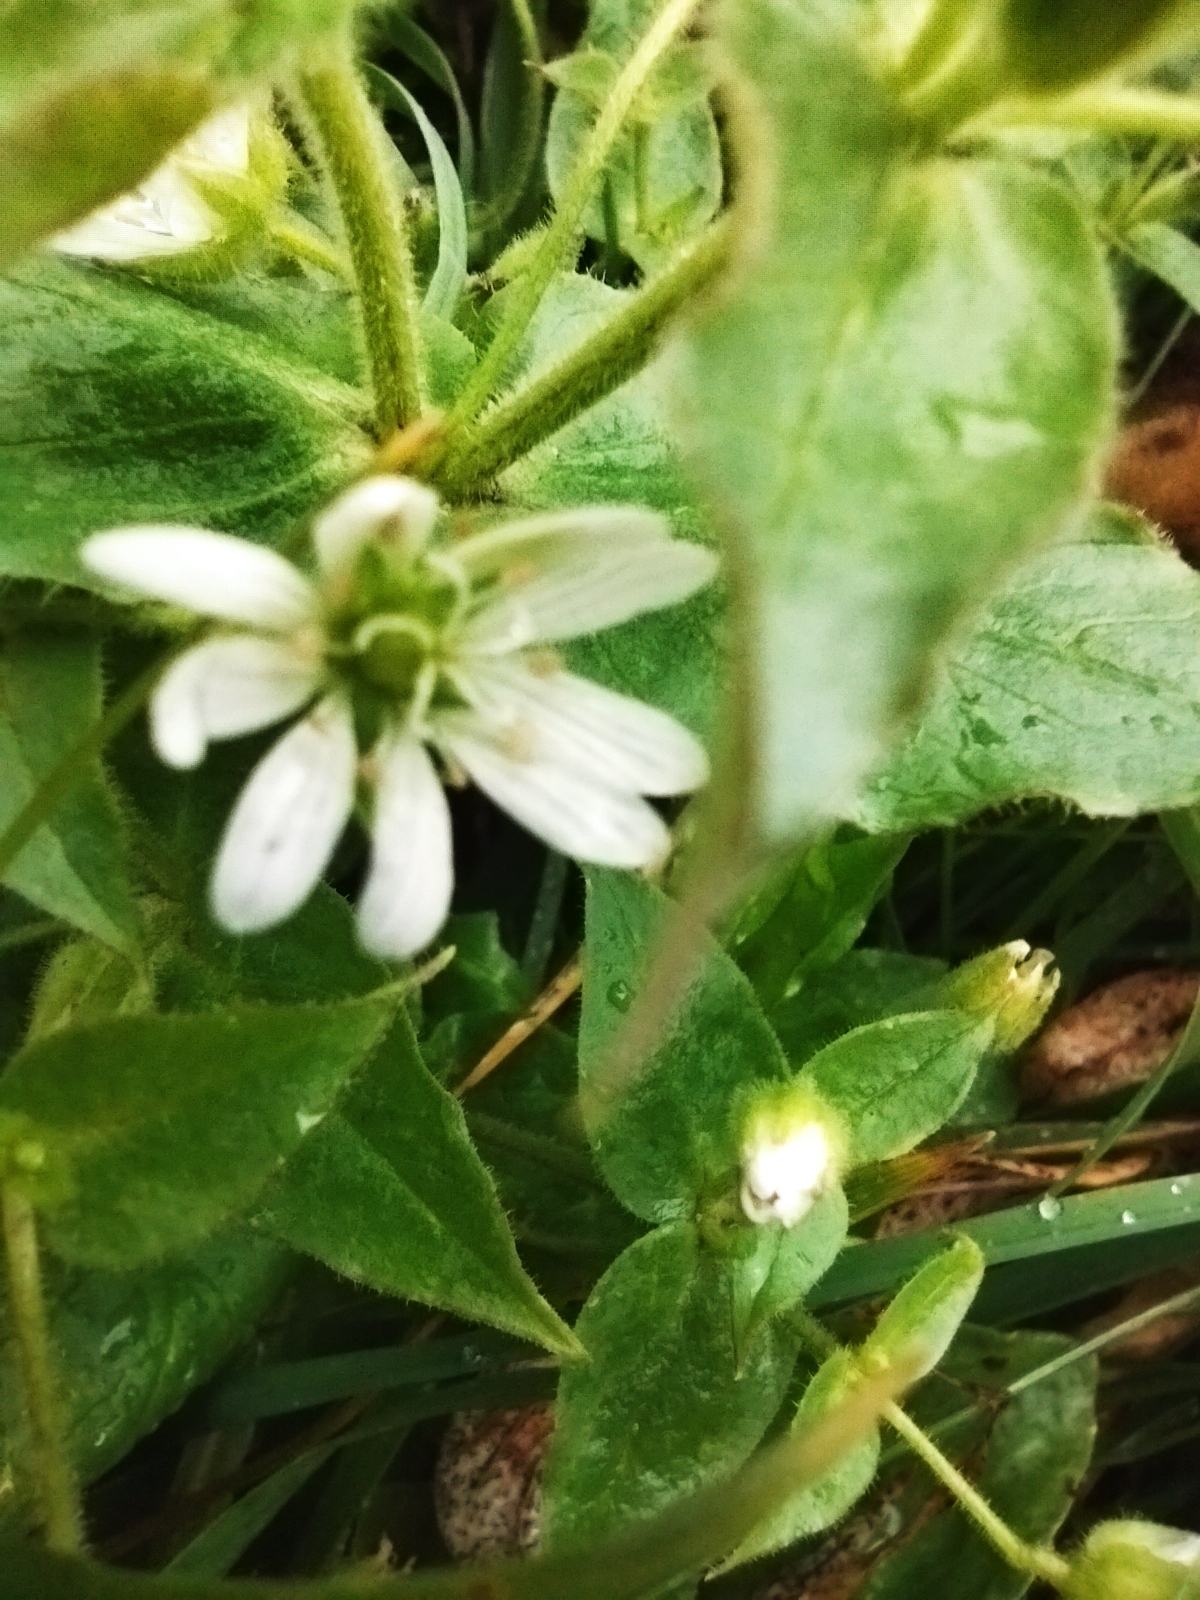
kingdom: Plantae
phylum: Tracheophyta
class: Magnoliopsida
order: Caryophyllales
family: Caryophyllaceae
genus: Stellaria
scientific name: Stellaria aquatica
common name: Water chickweed
